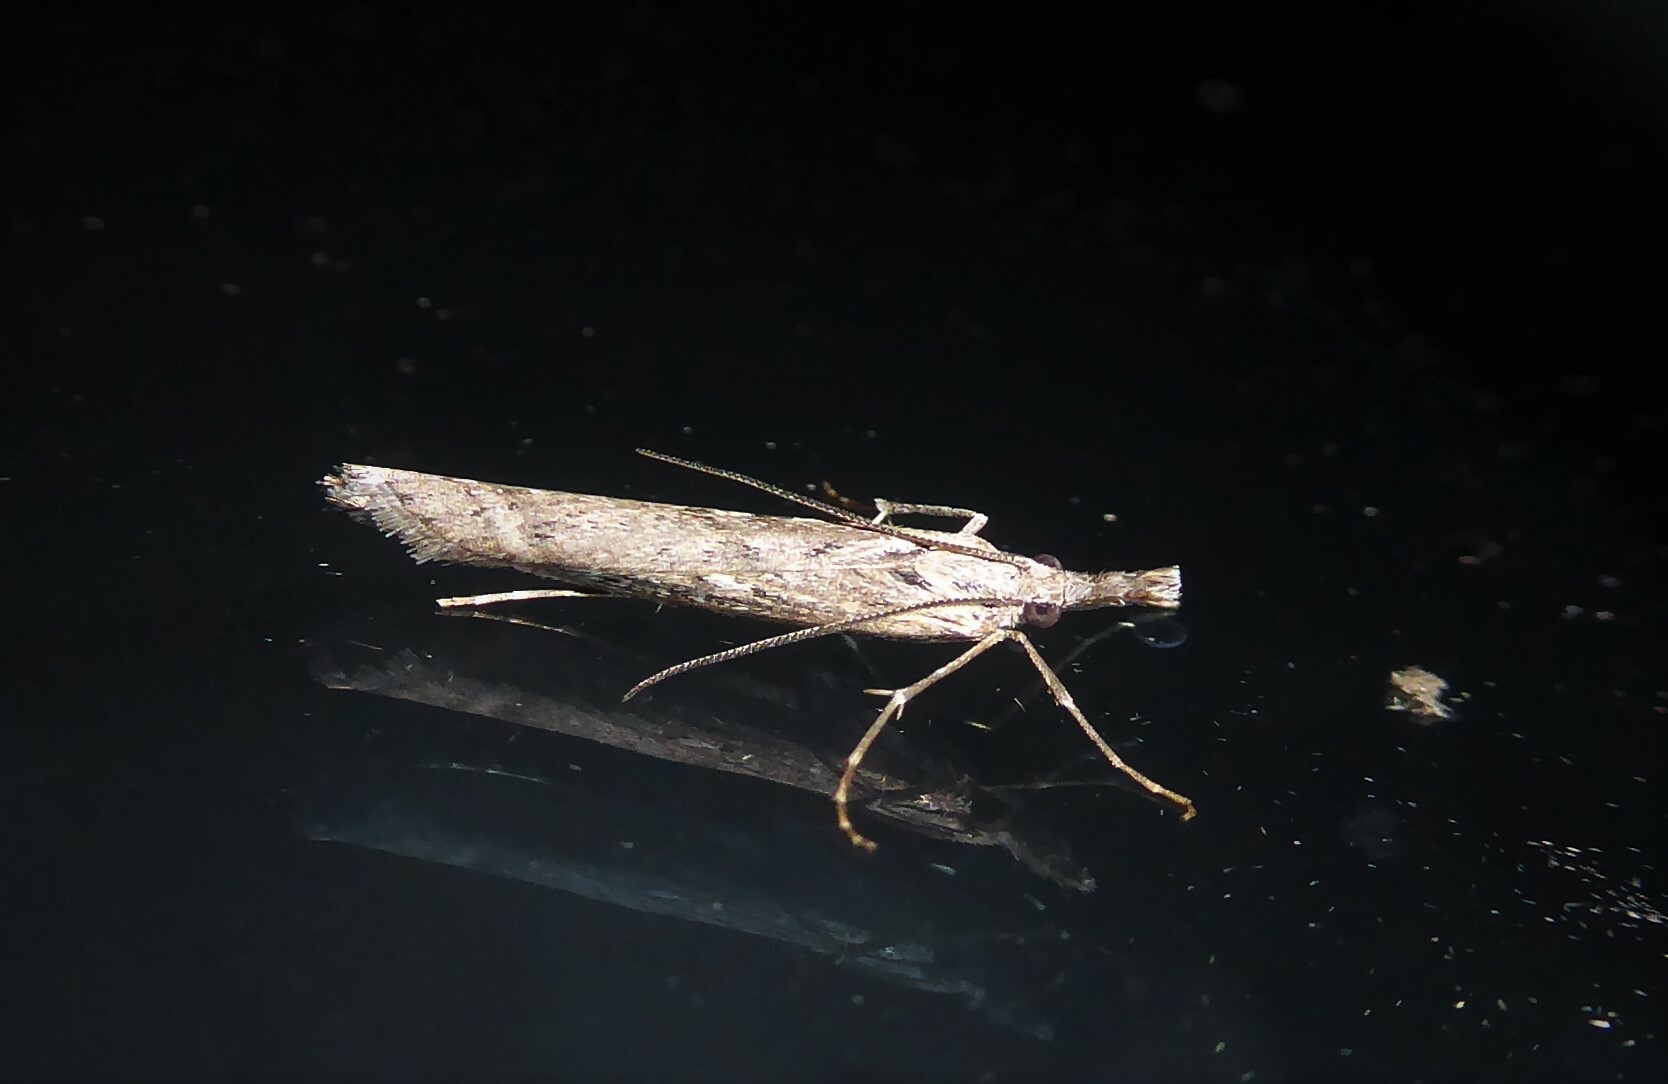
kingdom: Animalia
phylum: Arthropoda
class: Insecta
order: Lepidoptera
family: Crambidae
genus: Orocrambus
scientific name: Orocrambus cyclopicus
